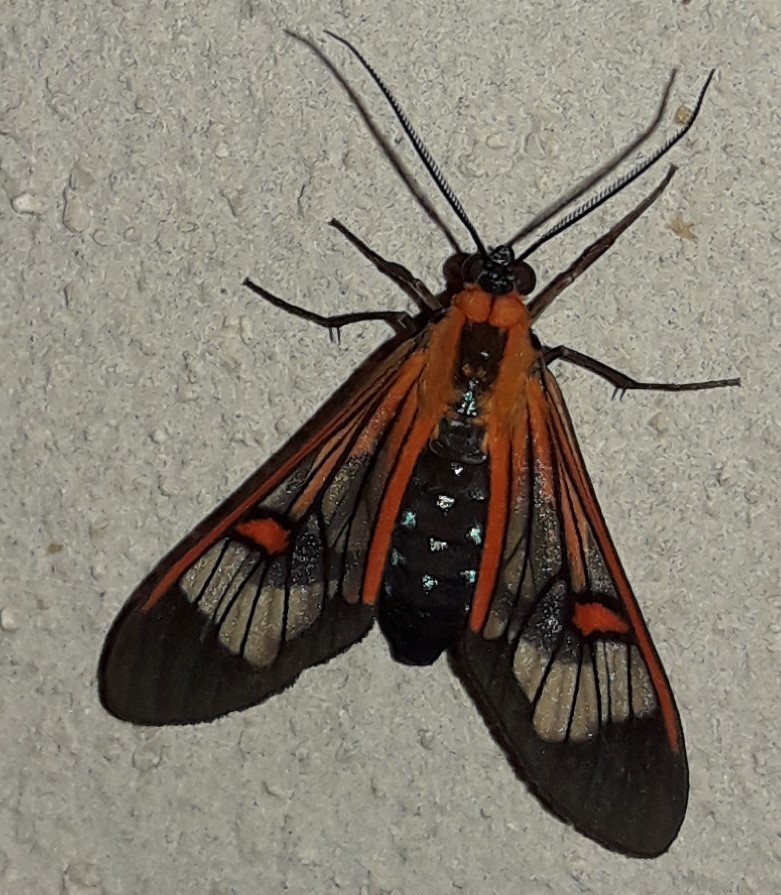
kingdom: Animalia
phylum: Arthropoda
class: Insecta
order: Lepidoptera
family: Erebidae
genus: Lepidoneiva
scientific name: Lepidoneiva
